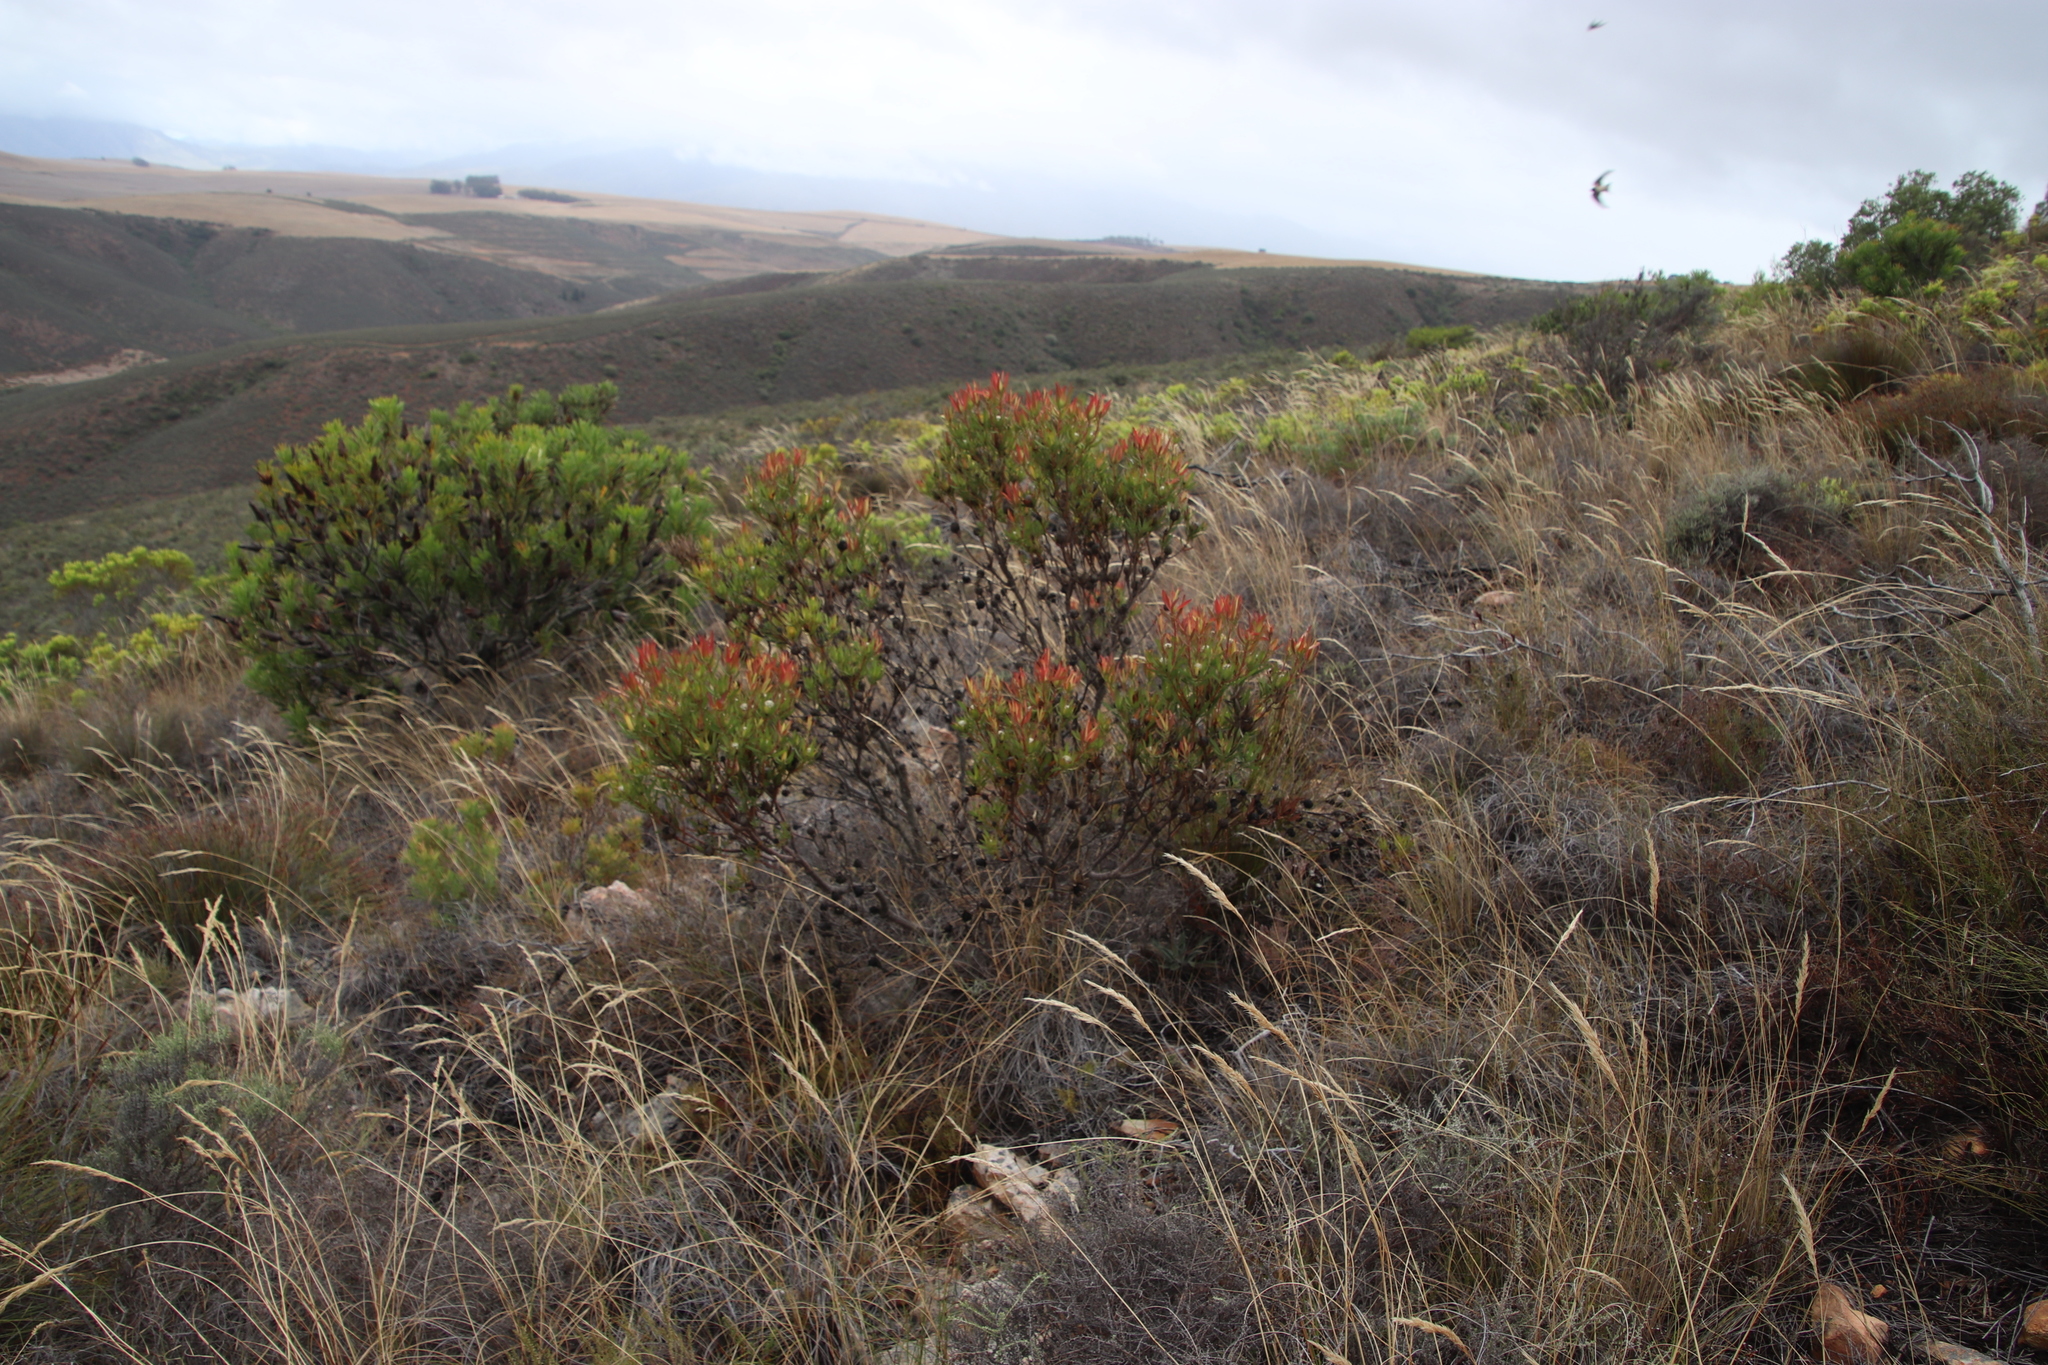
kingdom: Plantae
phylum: Tracheophyta
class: Magnoliopsida
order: Proteales
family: Proteaceae
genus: Leucadendron
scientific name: Leucadendron salignum
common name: Common sunshine conebush
